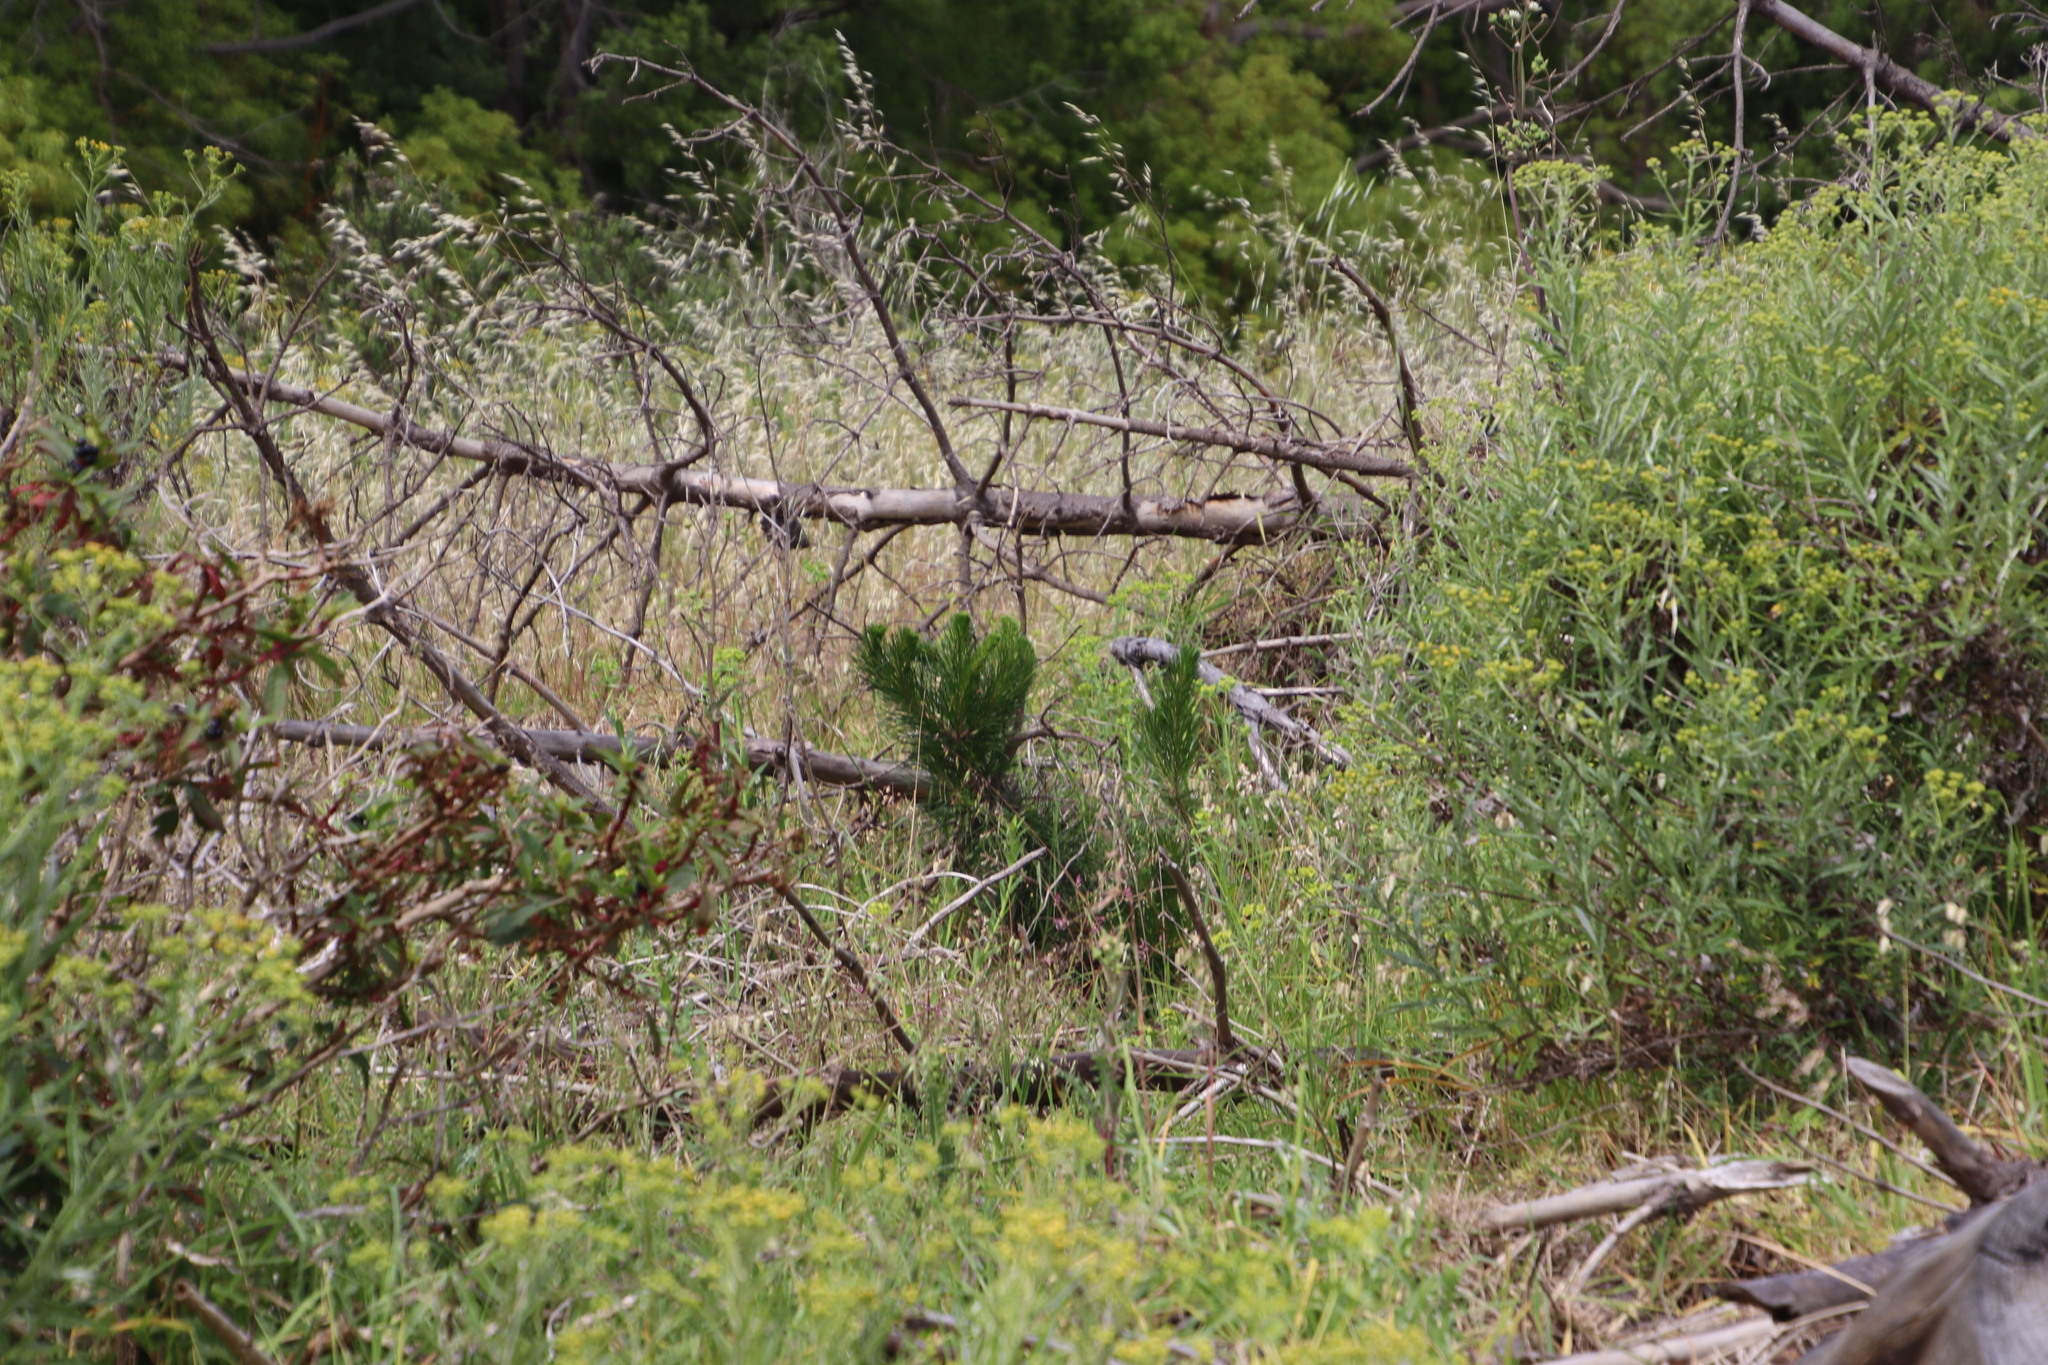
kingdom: Plantae
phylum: Tracheophyta
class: Pinopsida
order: Pinales
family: Pinaceae
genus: Pinus
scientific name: Pinus radiata
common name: Monterey pine
